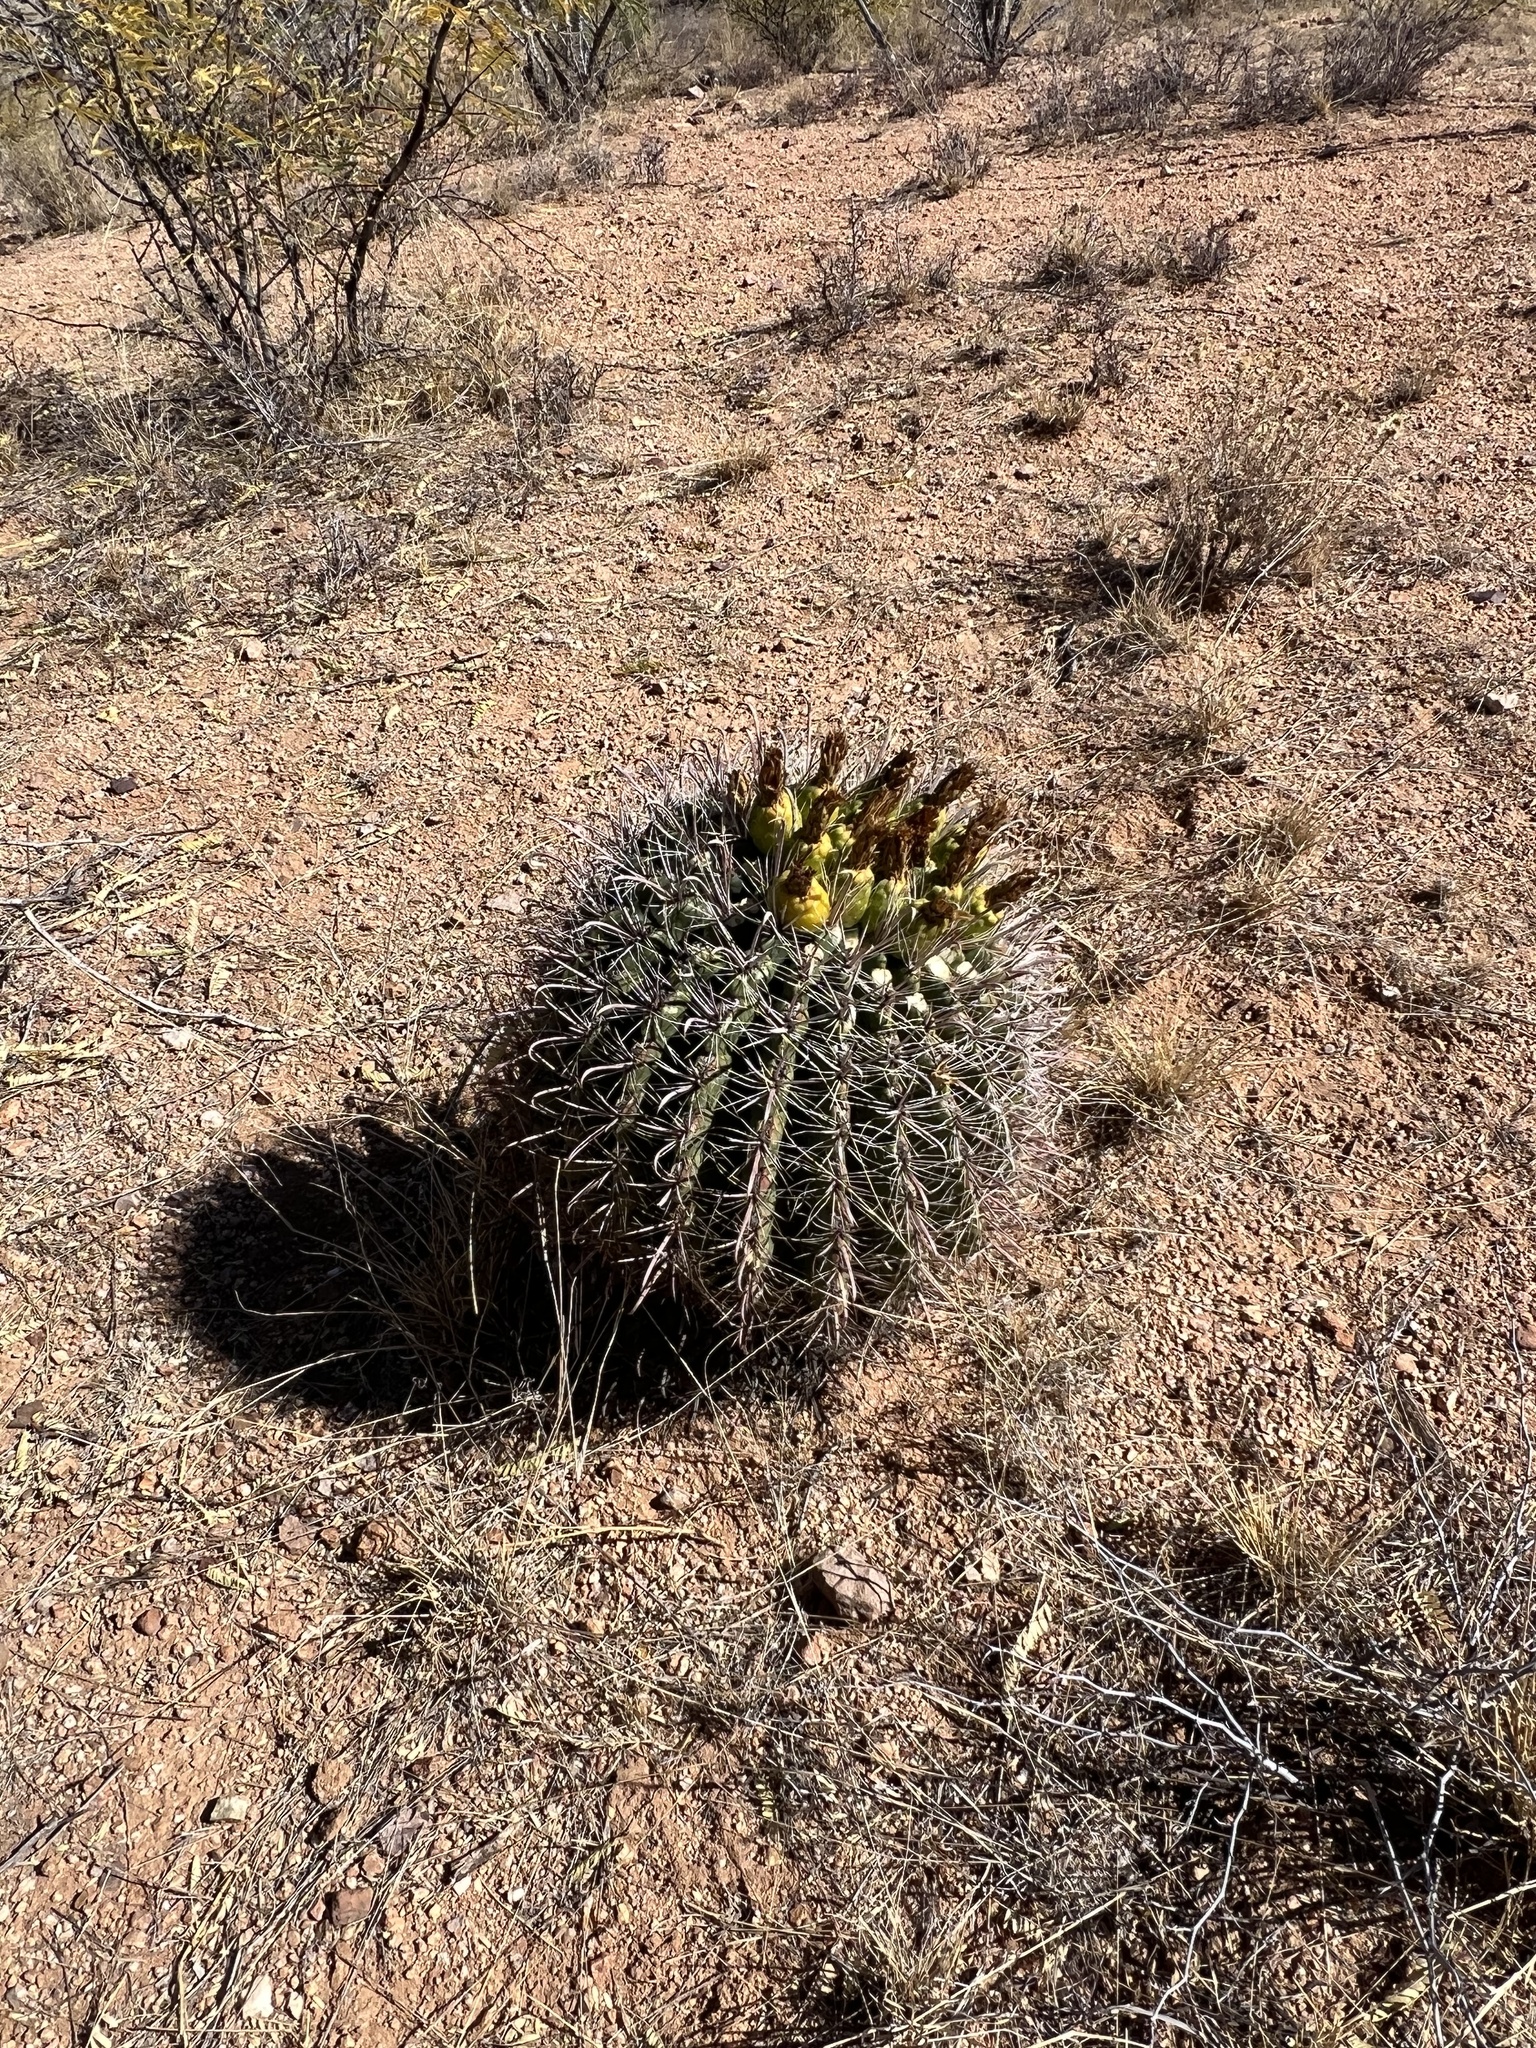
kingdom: Plantae
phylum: Tracheophyta
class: Magnoliopsida
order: Caryophyllales
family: Cactaceae
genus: Ferocactus
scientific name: Ferocactus wislizeni
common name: Candy barrel cactus
